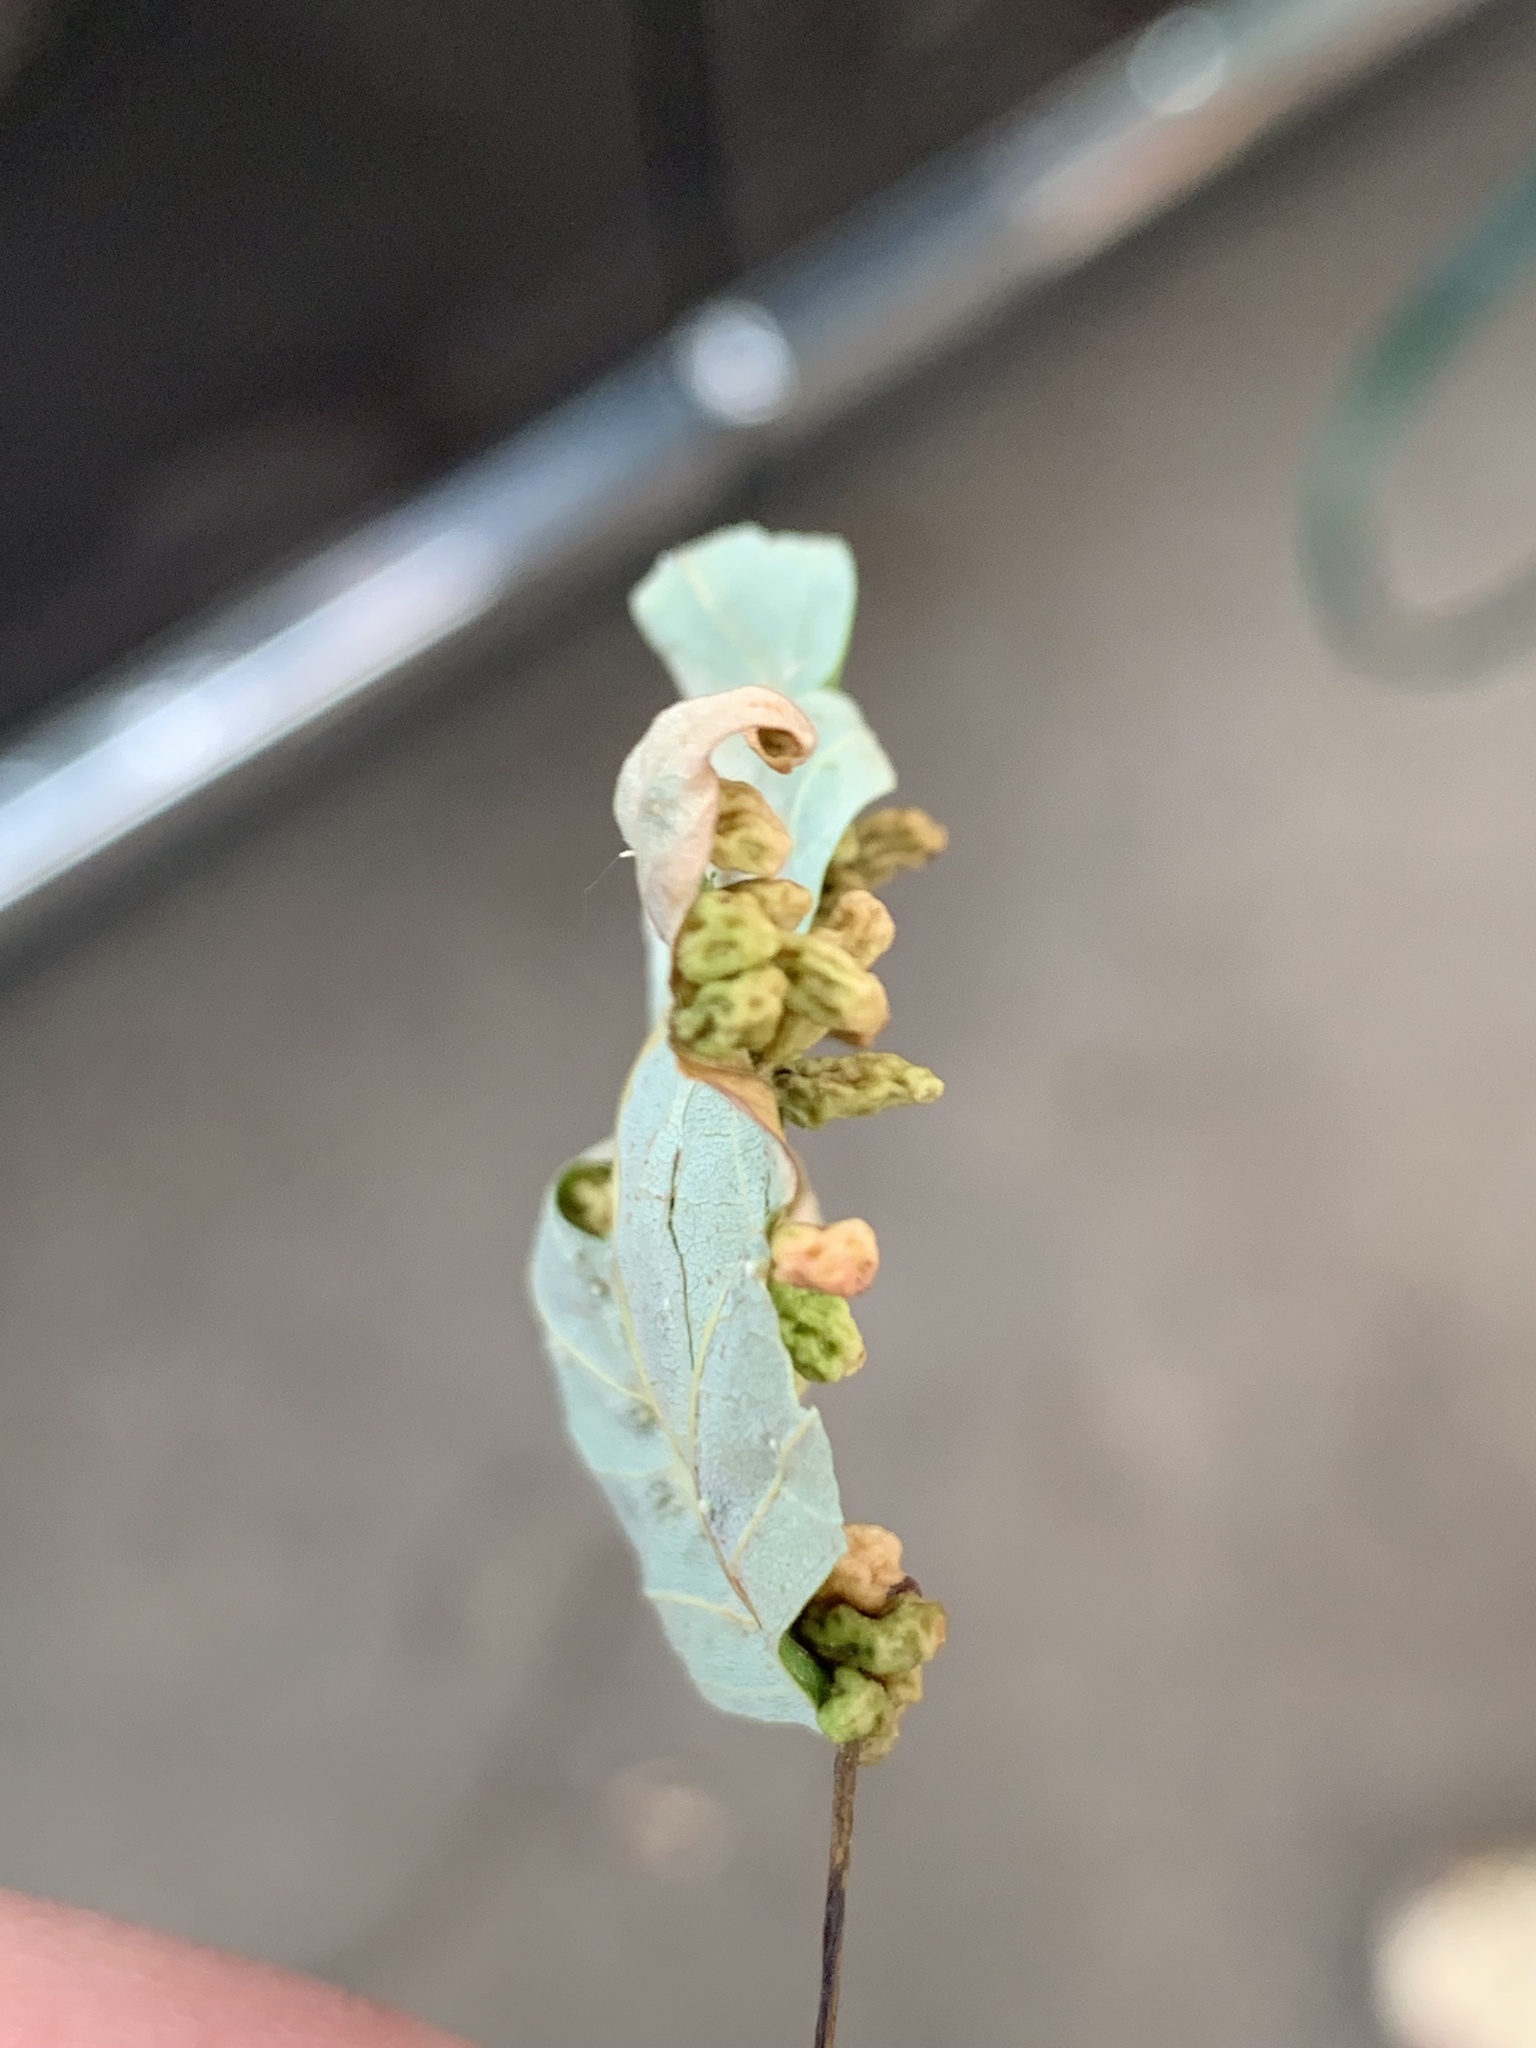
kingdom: Animalia
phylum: Arthropoda
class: Arachnida
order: Trombidiformes
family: Eriophyidae
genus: Vasates
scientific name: Vasates quadripedes
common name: Maple bladder gall mite
